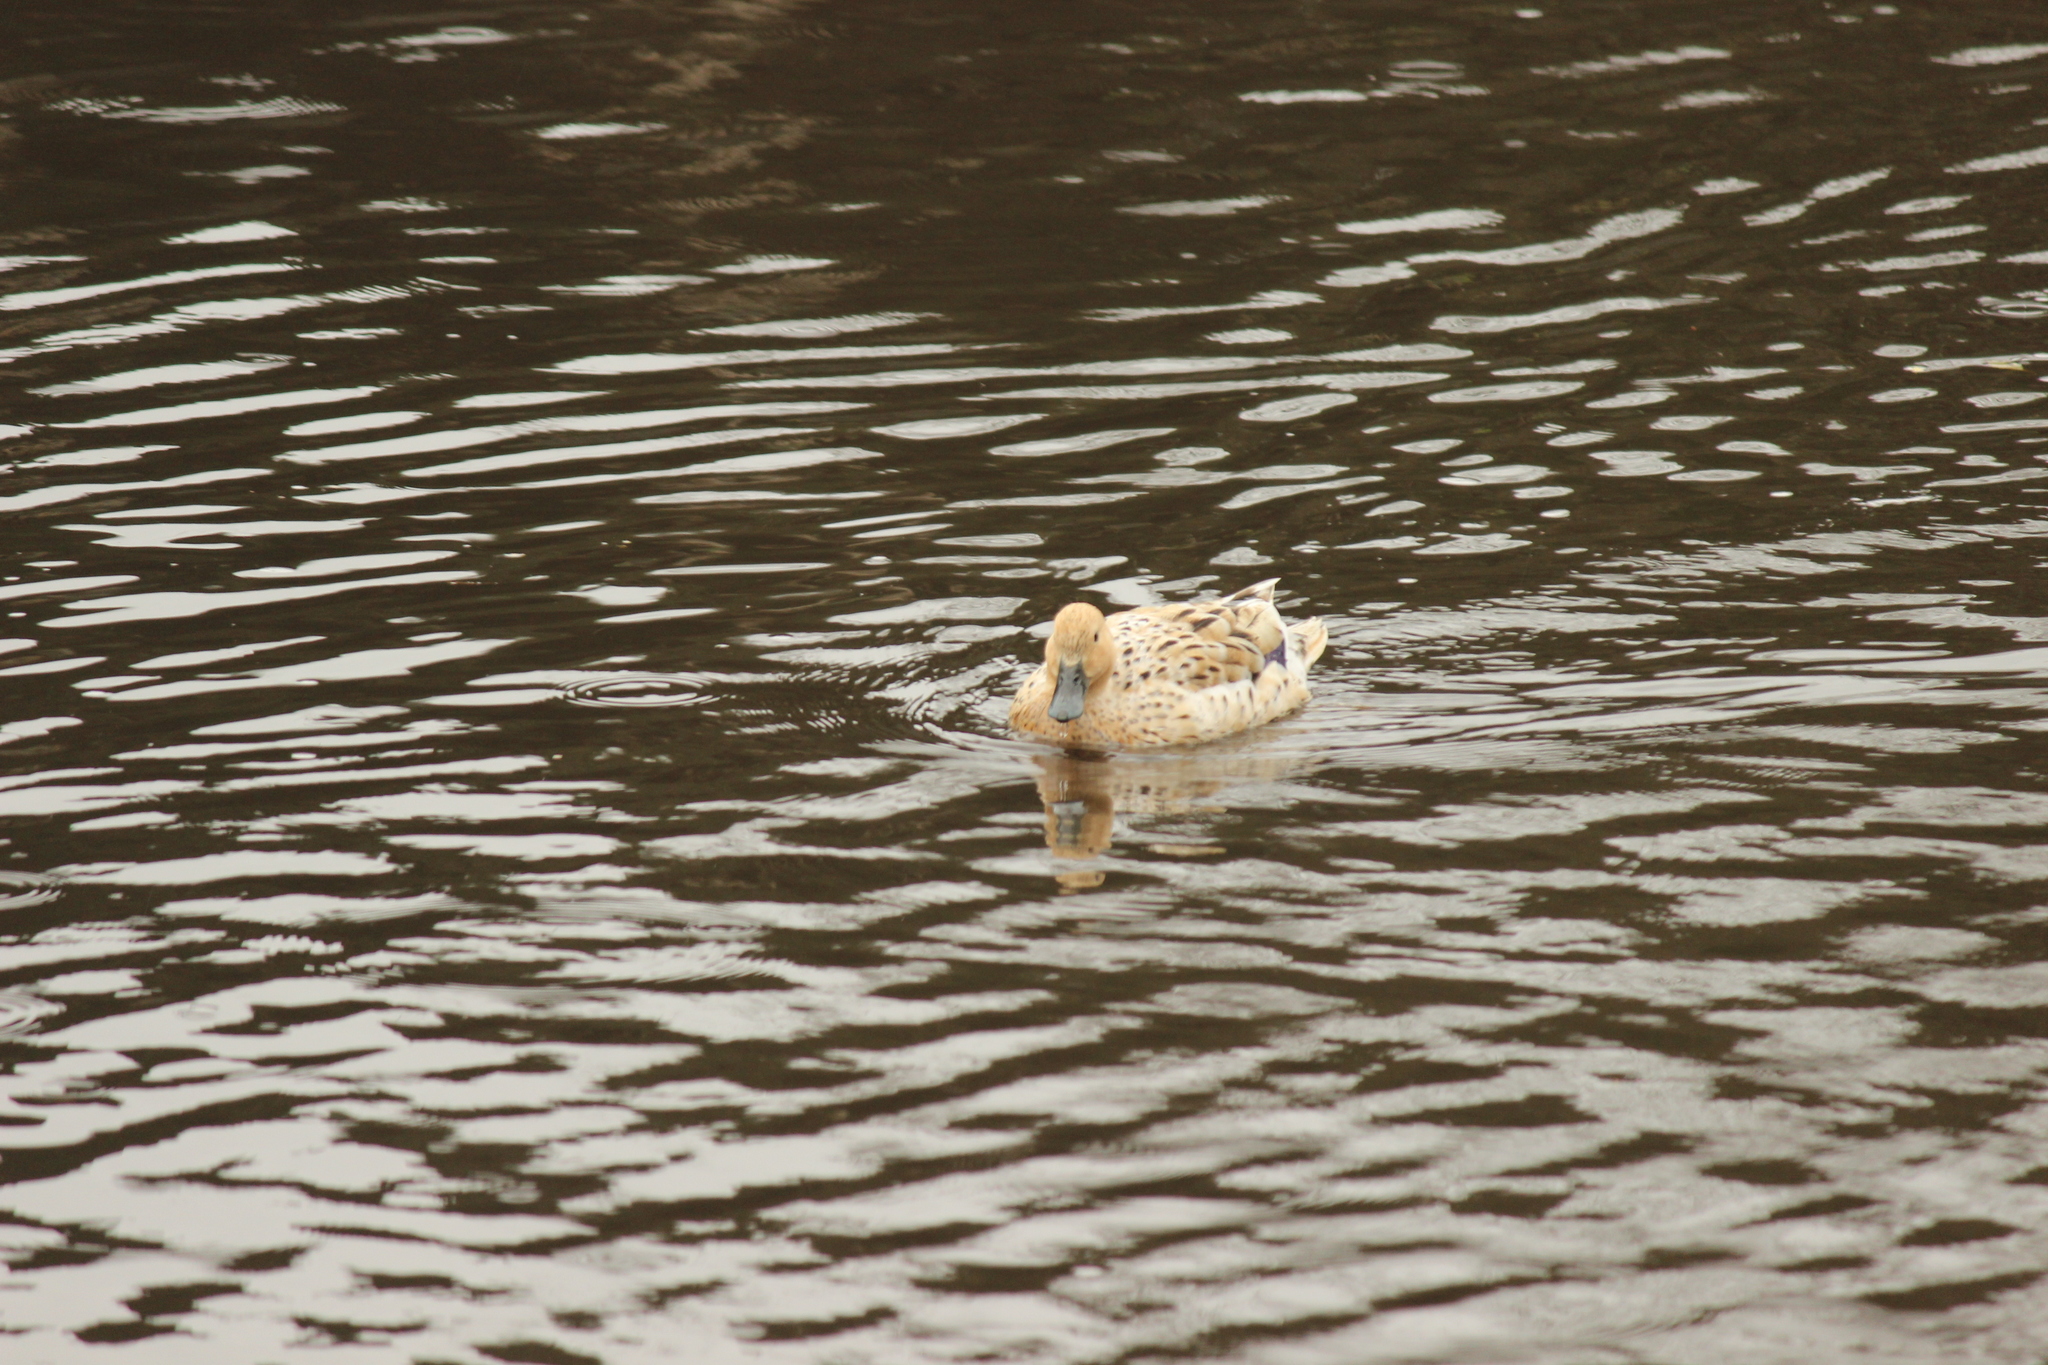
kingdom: Animalia
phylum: Chordata
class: Aves
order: Anseriformes
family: Anatidae
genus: Anas
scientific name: Anas platyrhynchos
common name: Mallard
